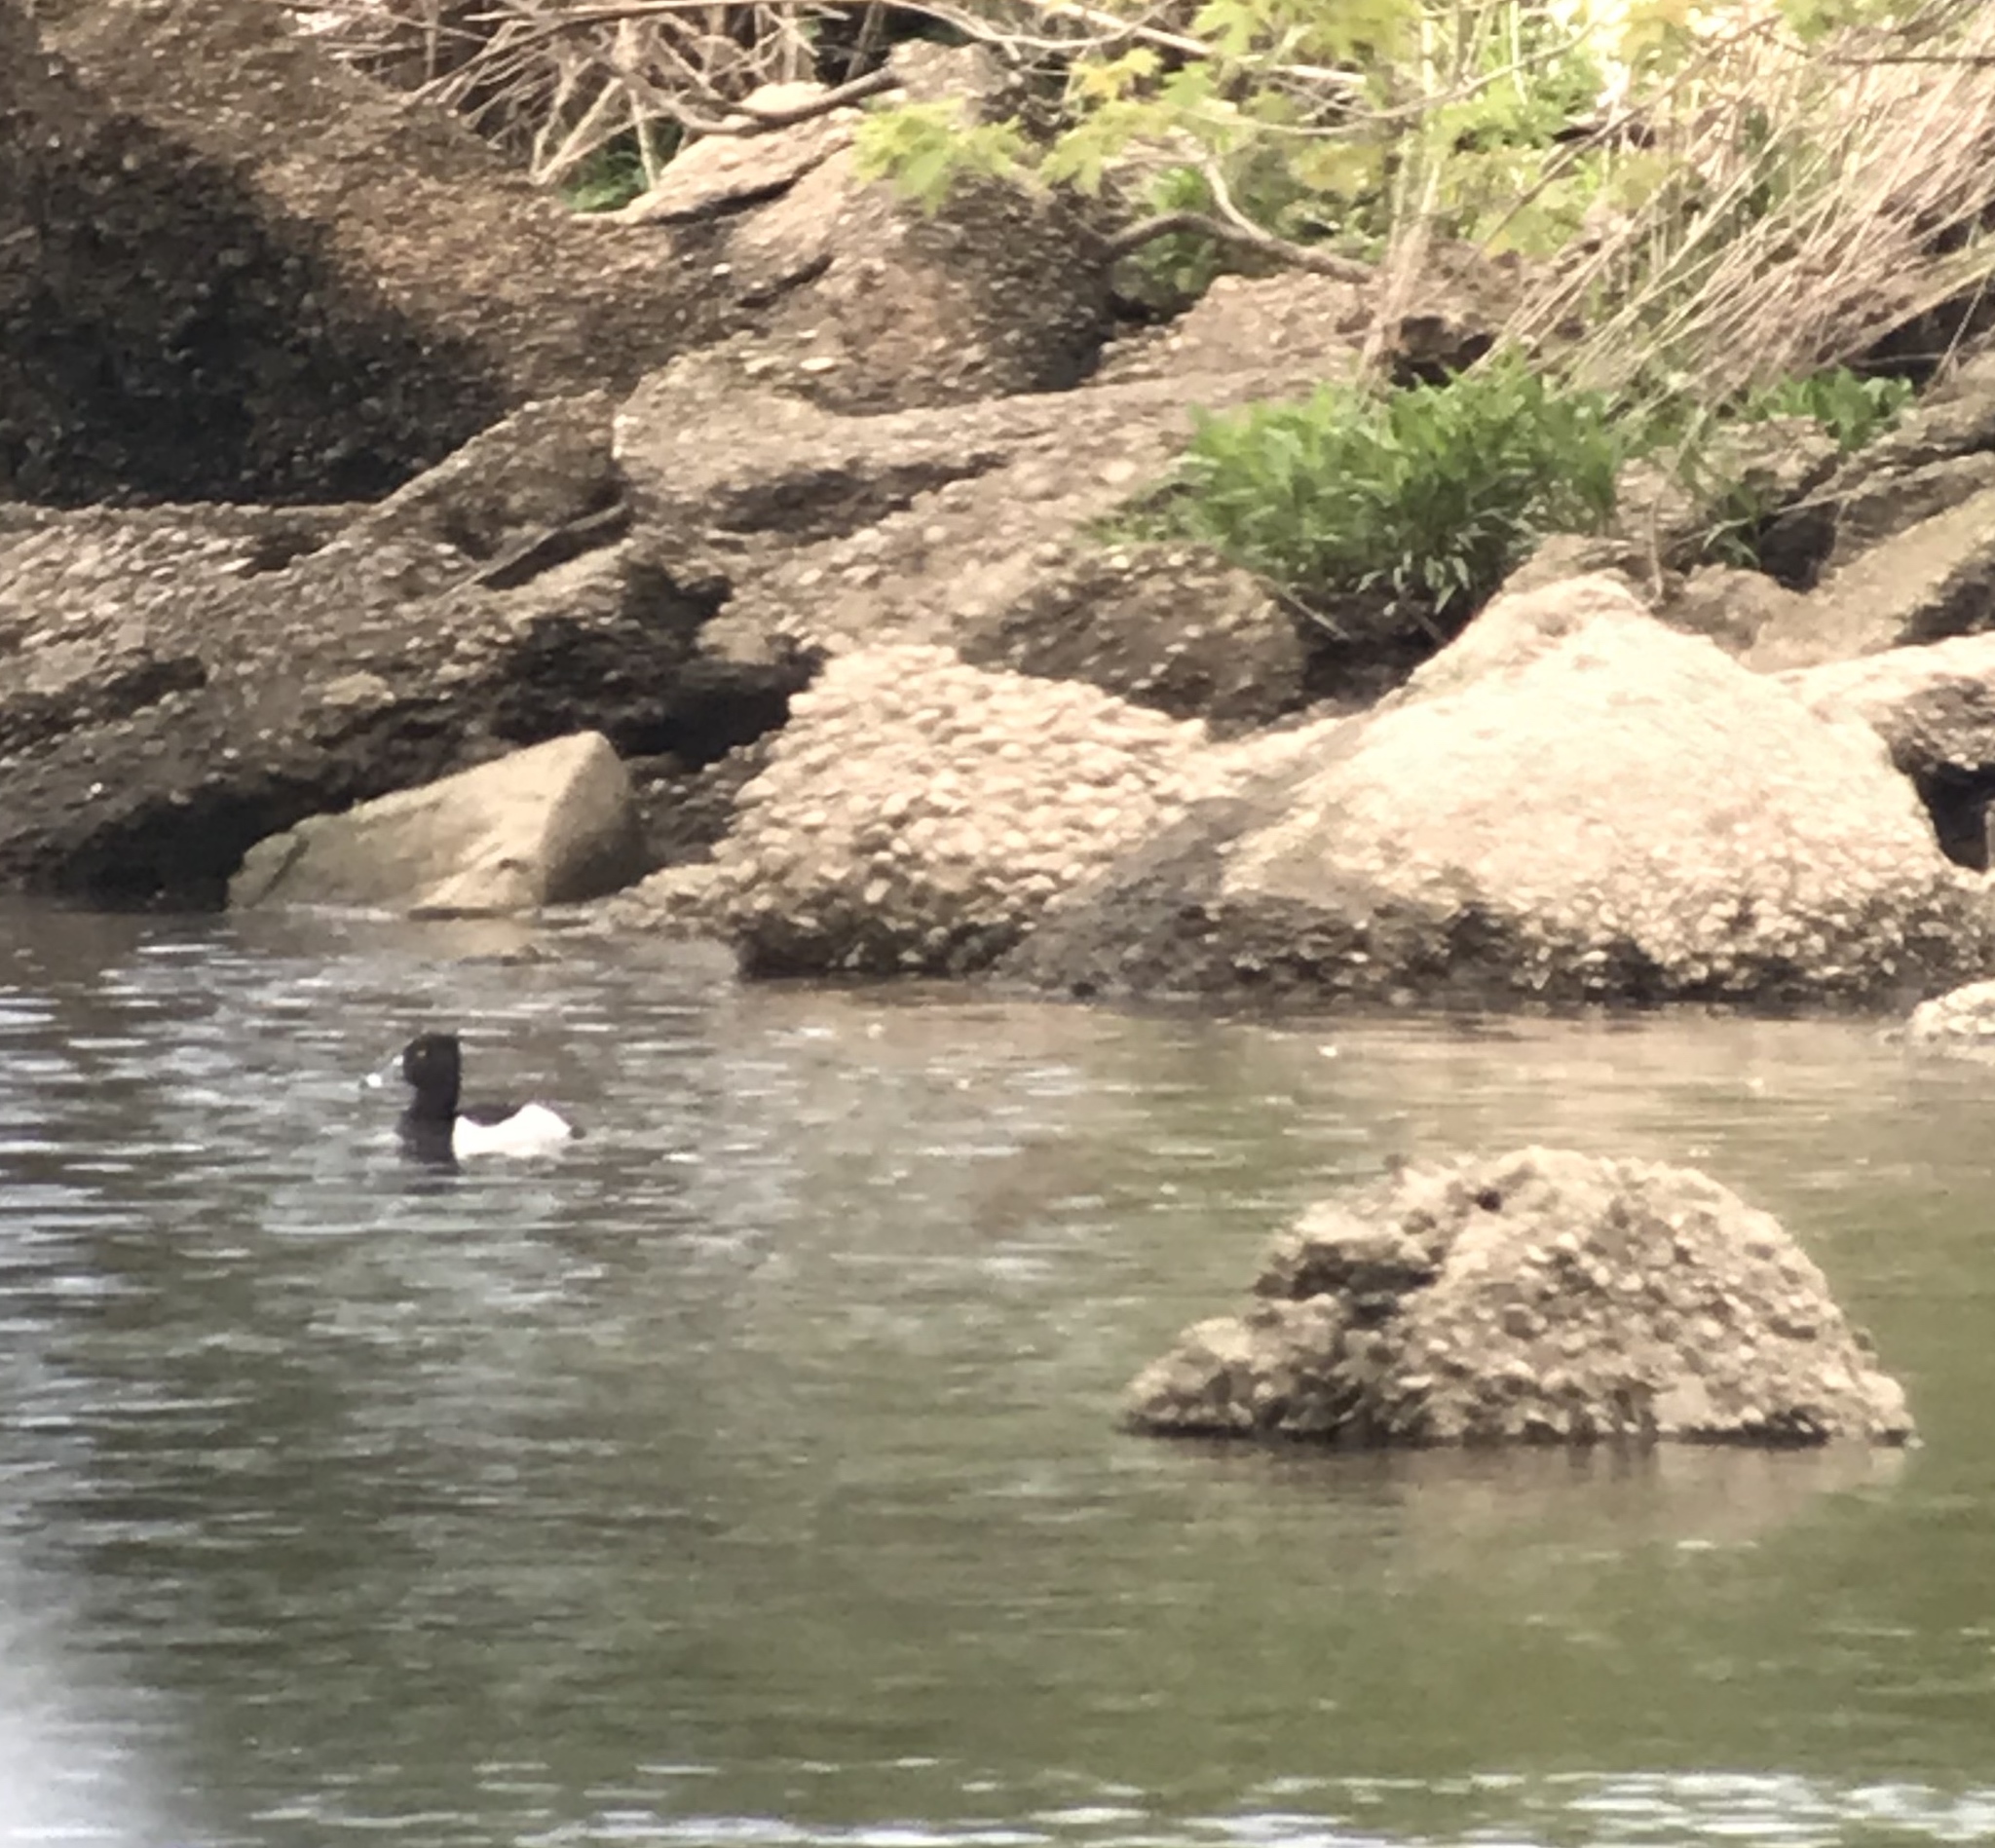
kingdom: Animalia
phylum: Chordata
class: Aves
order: Anseriformes
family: Anatidae
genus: Aythya
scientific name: Aythya collaris
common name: Ring-necked duck
